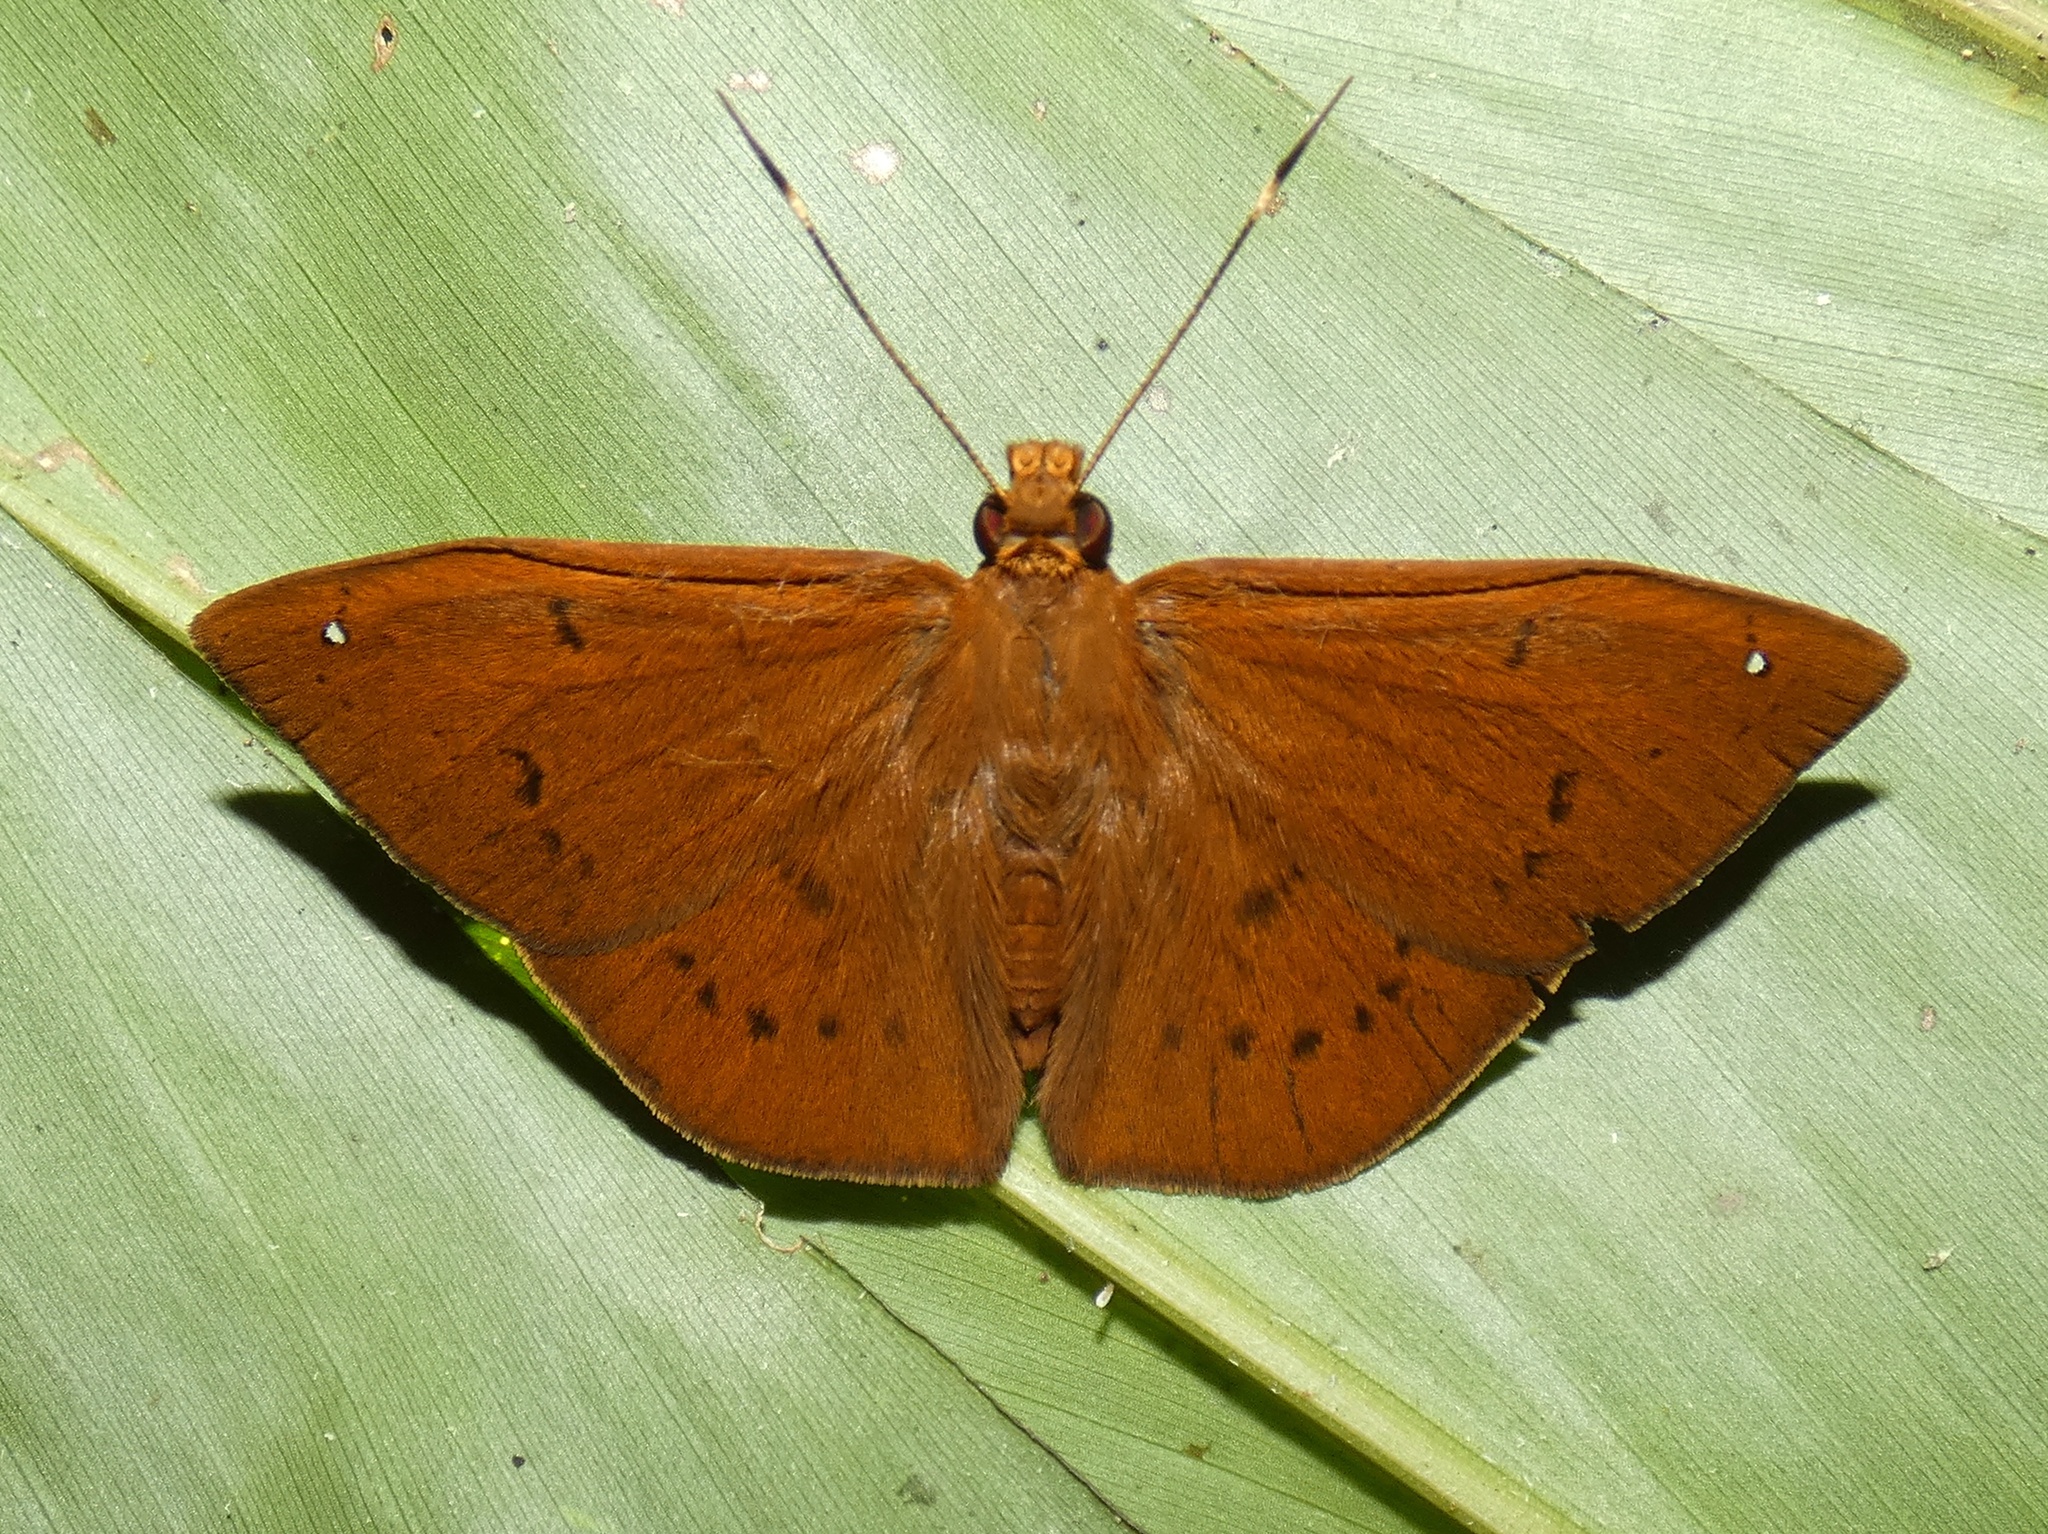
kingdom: Animalia
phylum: Arthropoda
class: Insecta
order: Lepidoptera
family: Hesperiidae
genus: Salatis
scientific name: Salatis canalis
